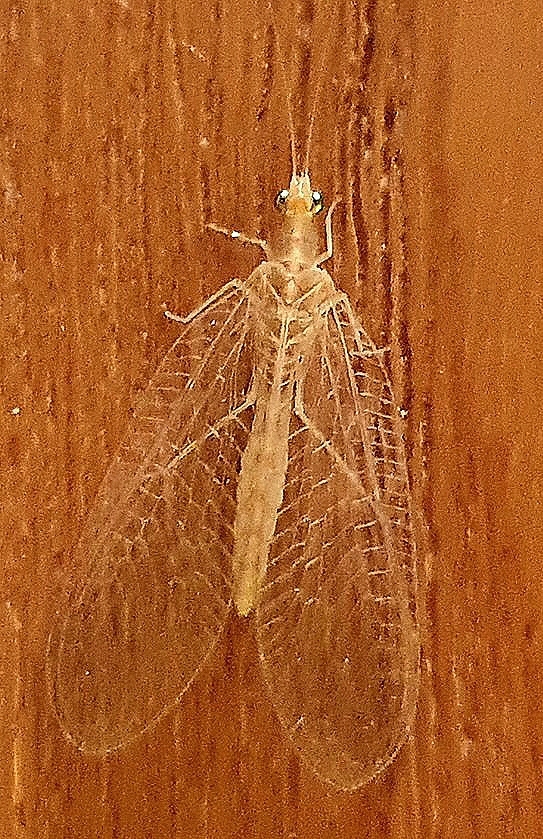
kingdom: Animalia
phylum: Arthropoda
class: Insecta
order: Neuroptera
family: Chrysopidae
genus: Chrysoperla
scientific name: Chrysoperla
